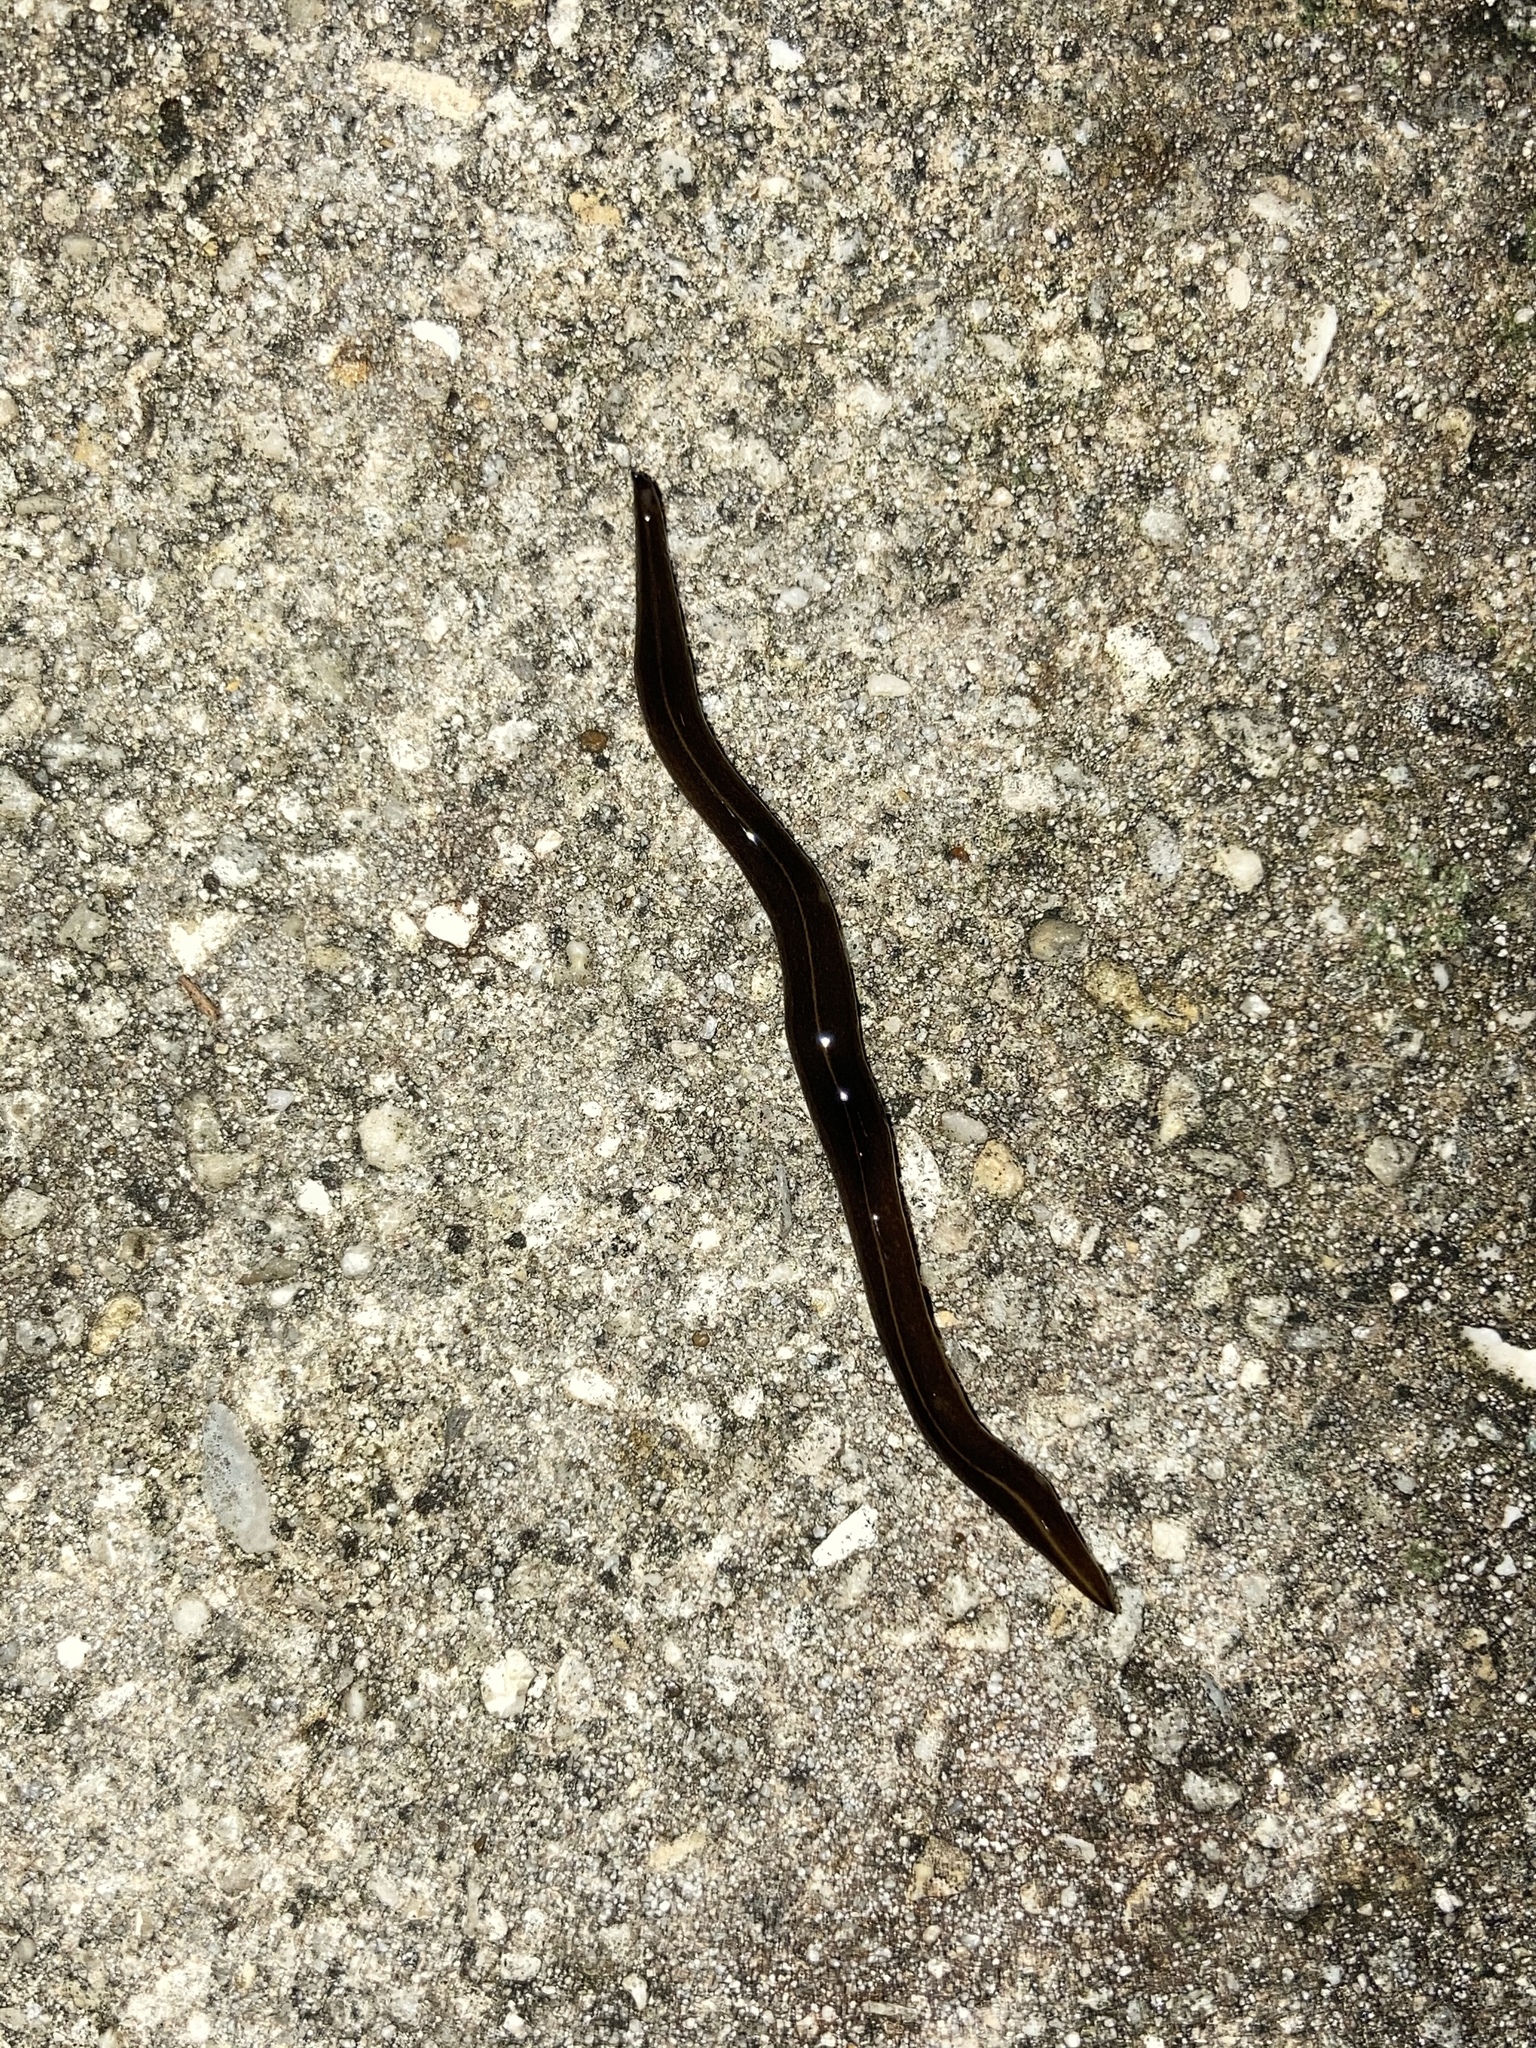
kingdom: Animalia
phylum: Platyhelminthes
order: Tricladida
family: Geoplanidae
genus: Platydemus
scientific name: Platydemus manokwari
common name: New guinea flatworm
